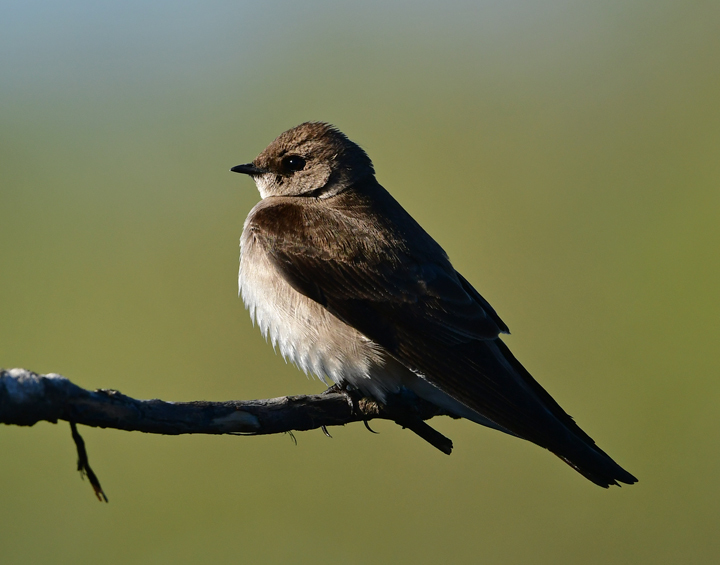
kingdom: Animalia
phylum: Chordata
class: Aves
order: Passeriformes
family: Hirundinidae
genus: Stelgidopteryx
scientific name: Stelgidopteryx serripennis
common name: Northern rough-winged swallow
